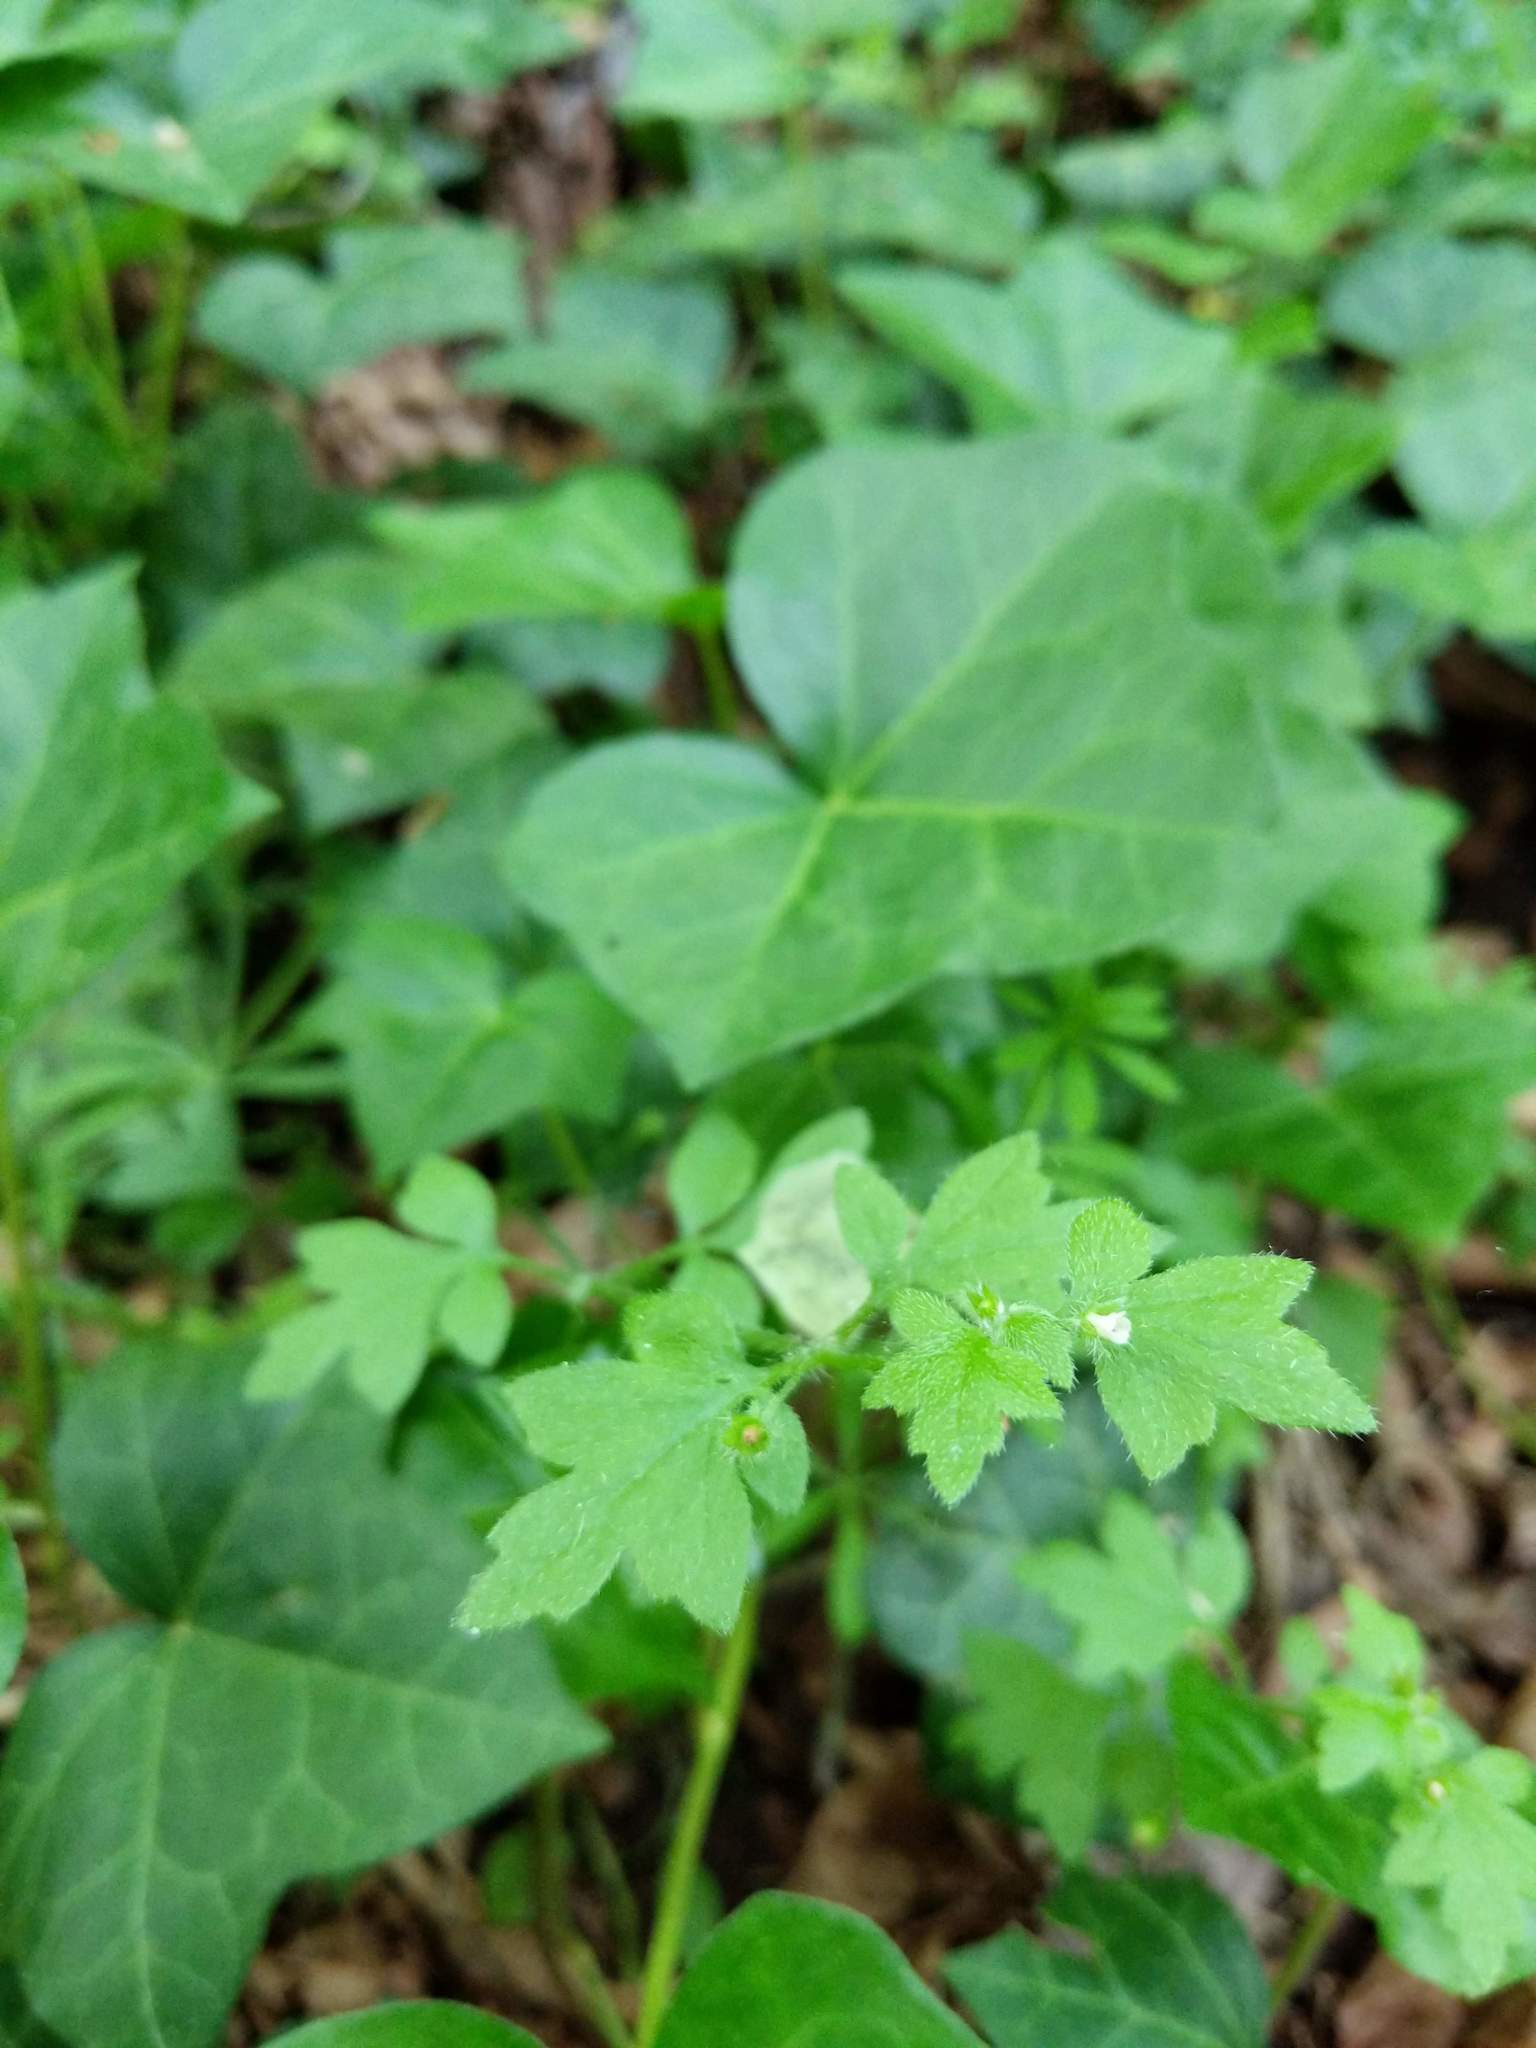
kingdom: Plantae
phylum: Tracheophyta
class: Magnoliopsida
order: Boraginales
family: Hydrophyllaceae
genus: Nemophila
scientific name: Nemophila parviflora
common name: Small-flowered baby-blue-eyes
